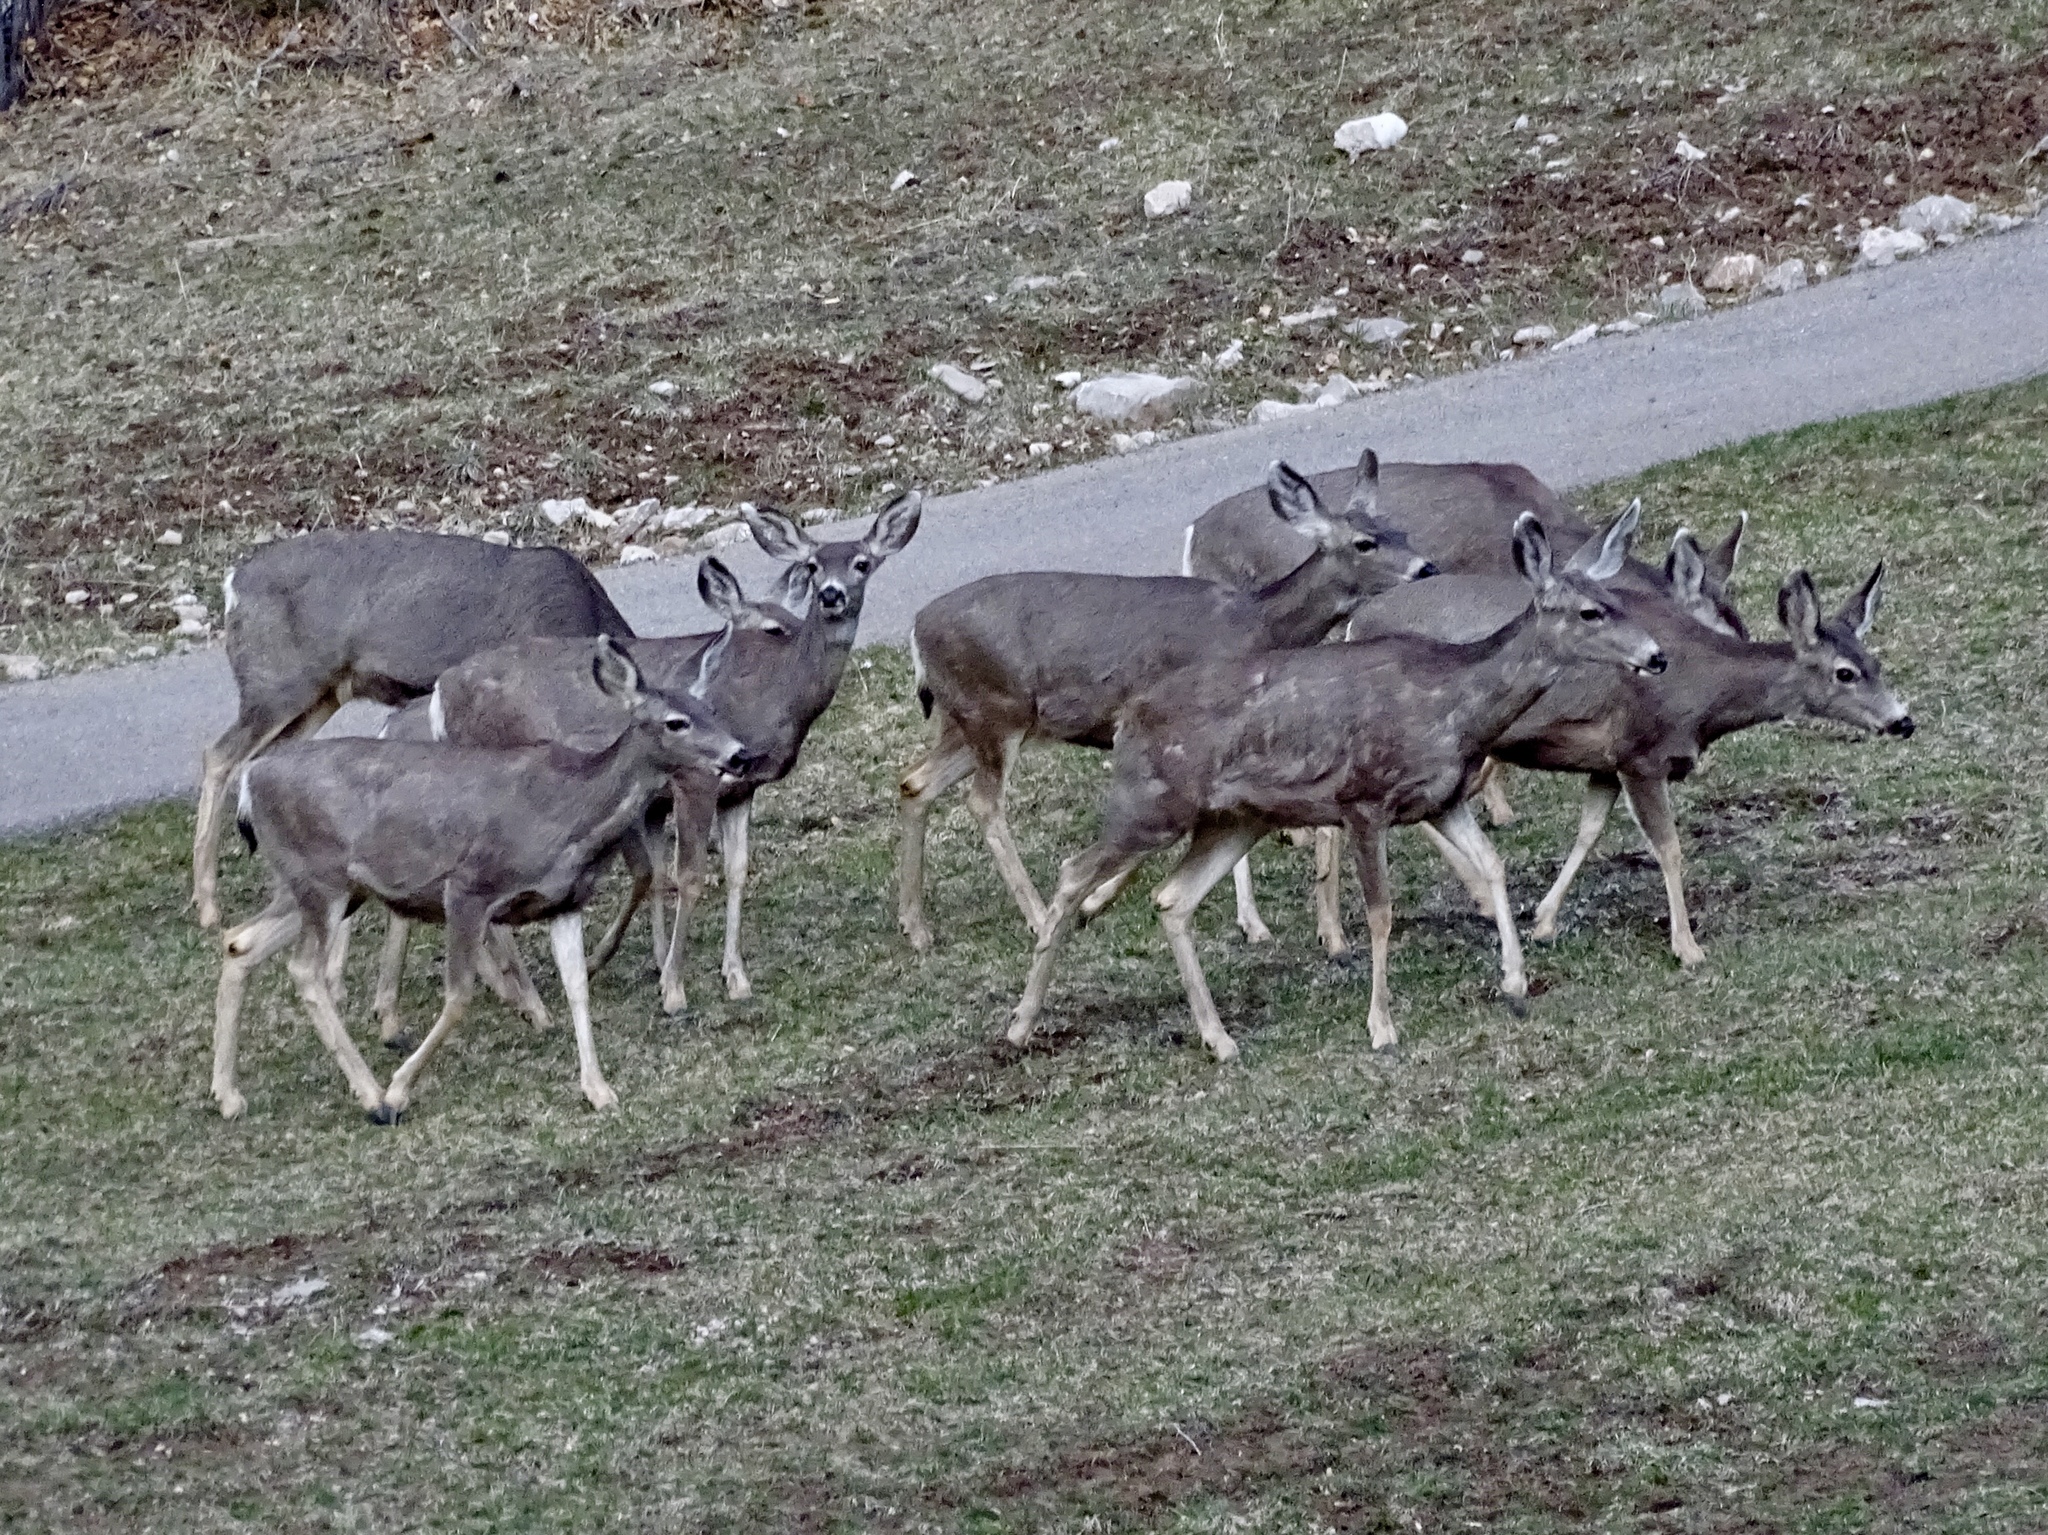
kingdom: Animalia
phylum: Chordata
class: Mammalia
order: Artiodactyla
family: Cervidae
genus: Odocoileus
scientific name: Odocoileus hemionus
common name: Mule deer
